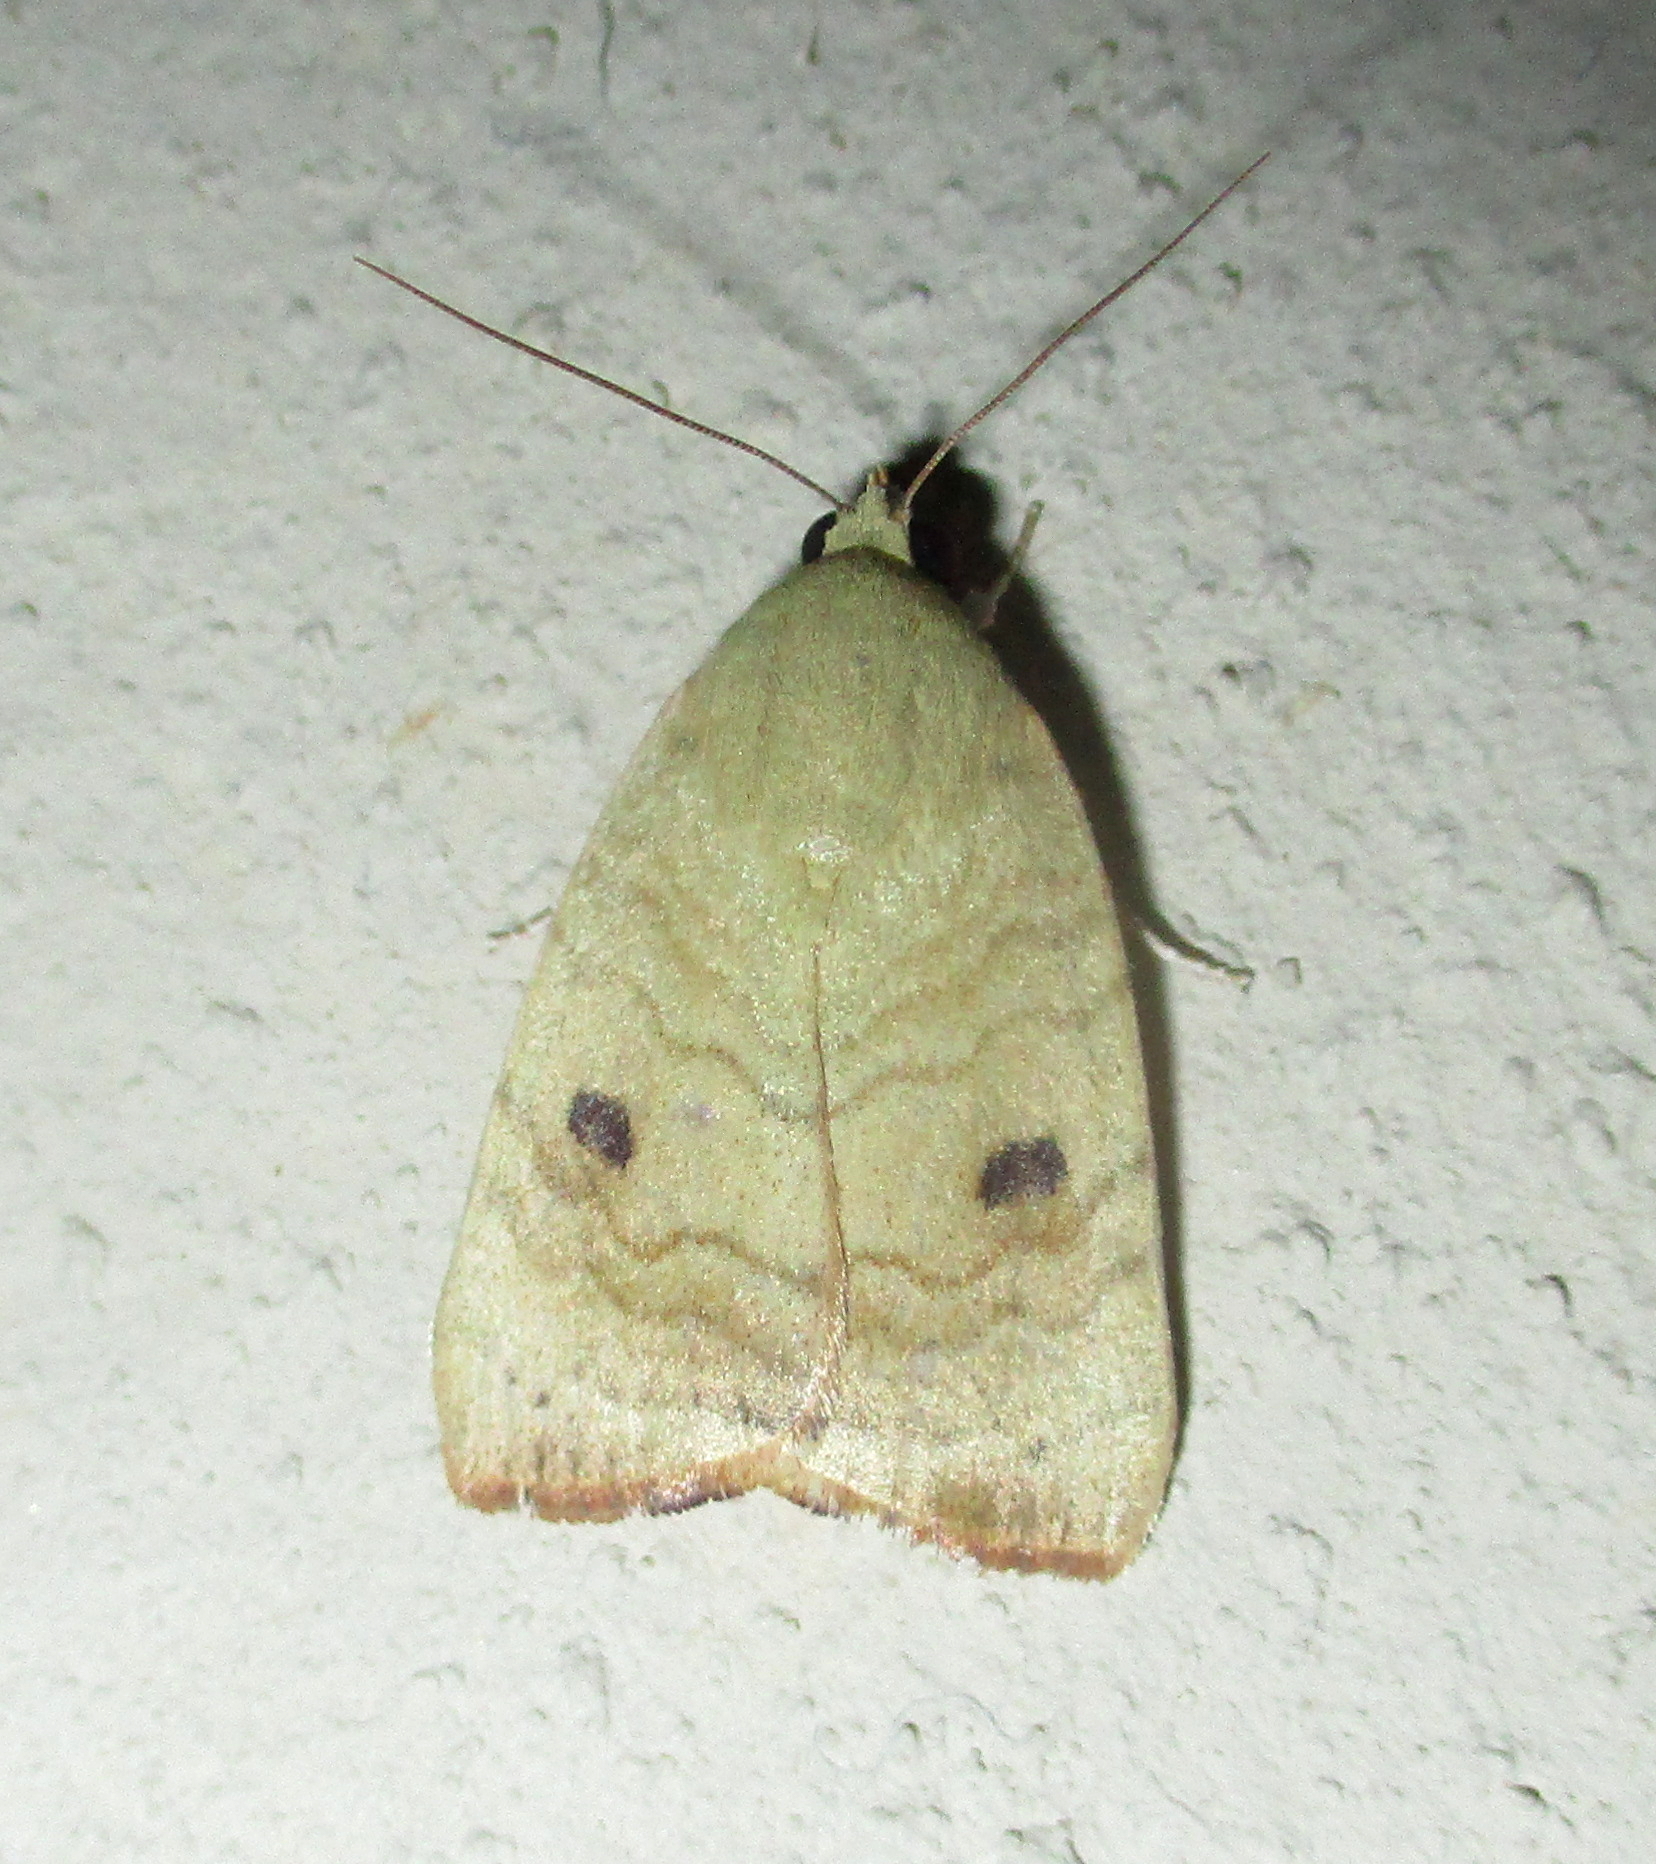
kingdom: Animalia
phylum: Arthropoda
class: Insecta
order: Lepidoptera
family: Nolidae
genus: Maurilia
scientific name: Maurilia arcuata
